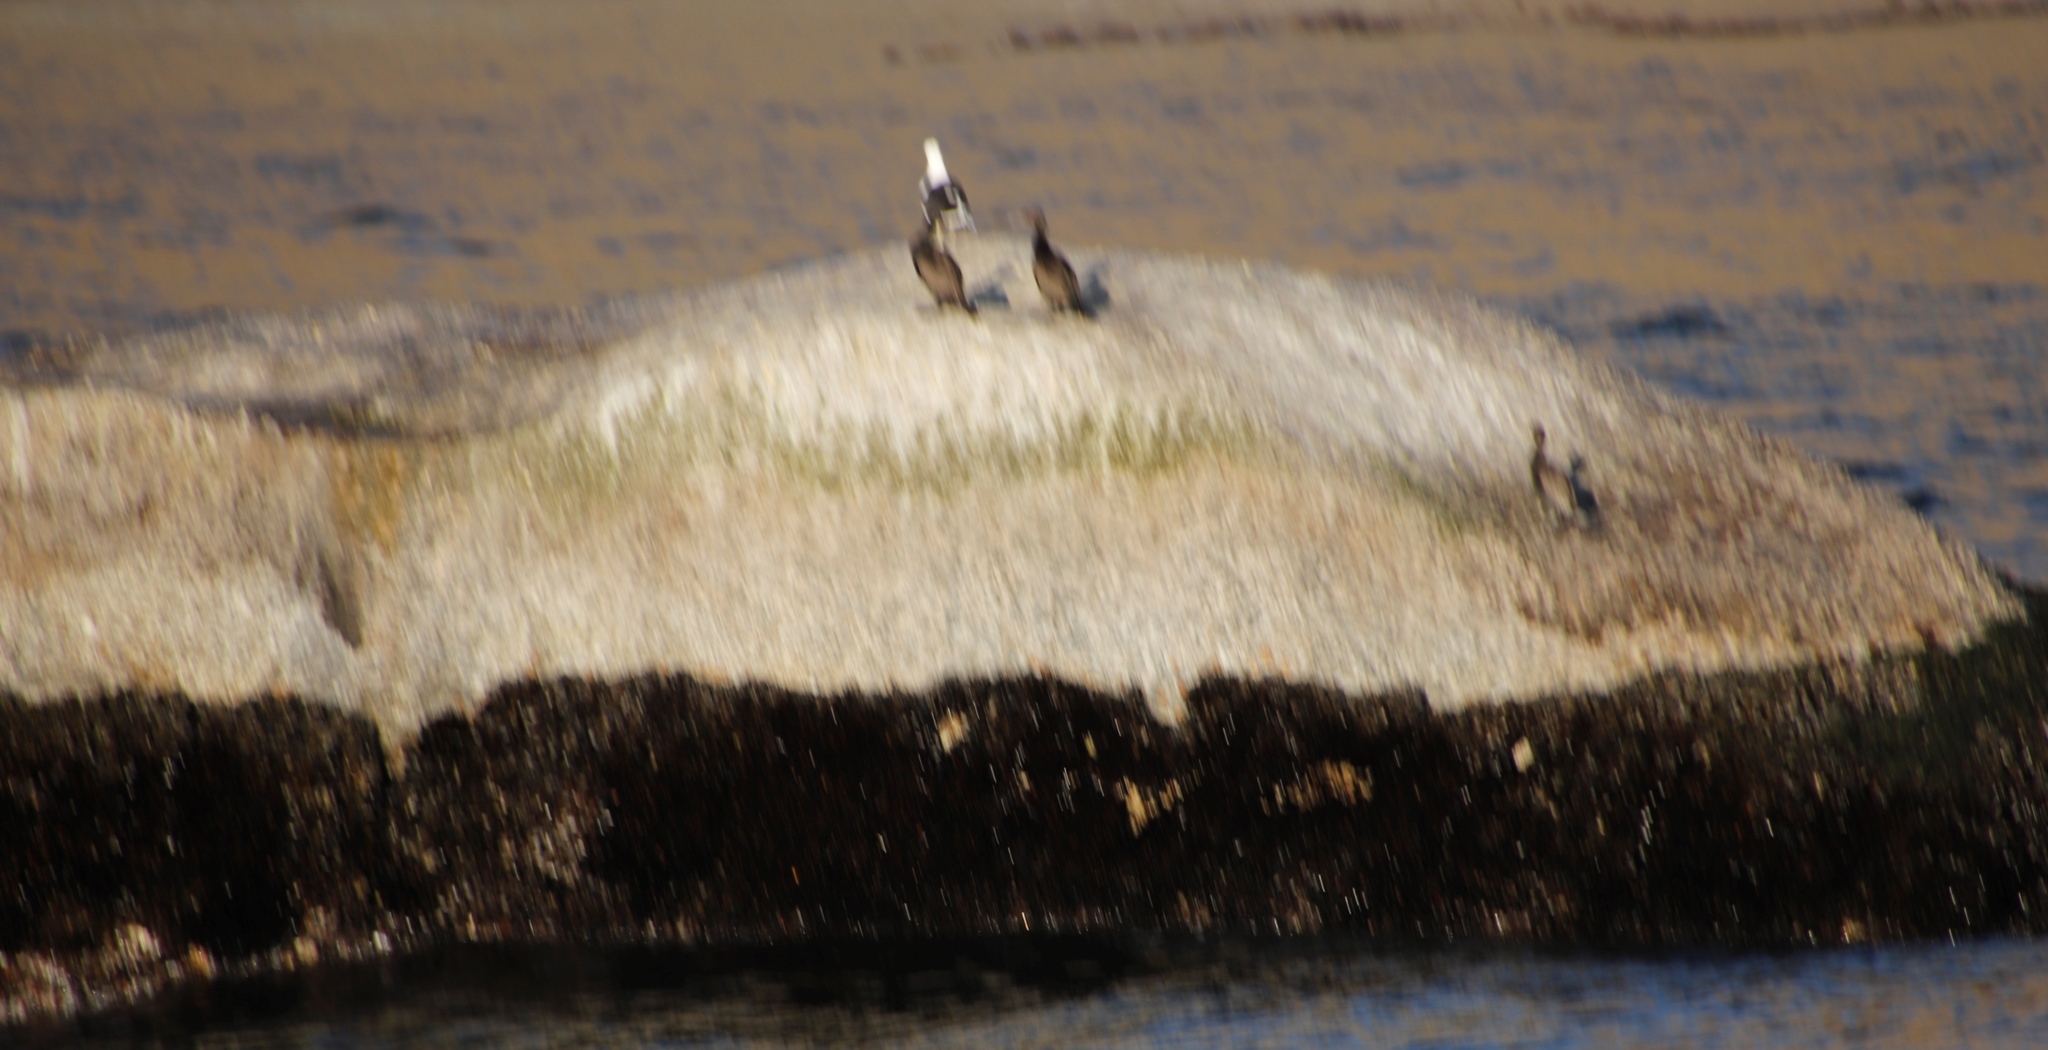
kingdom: Animalia
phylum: Chordata
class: Aves
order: Suliformes
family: Phalacrocoracidae
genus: Phalacrocorax
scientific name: Phalacrocorax neglectus
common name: Bank cormorant
